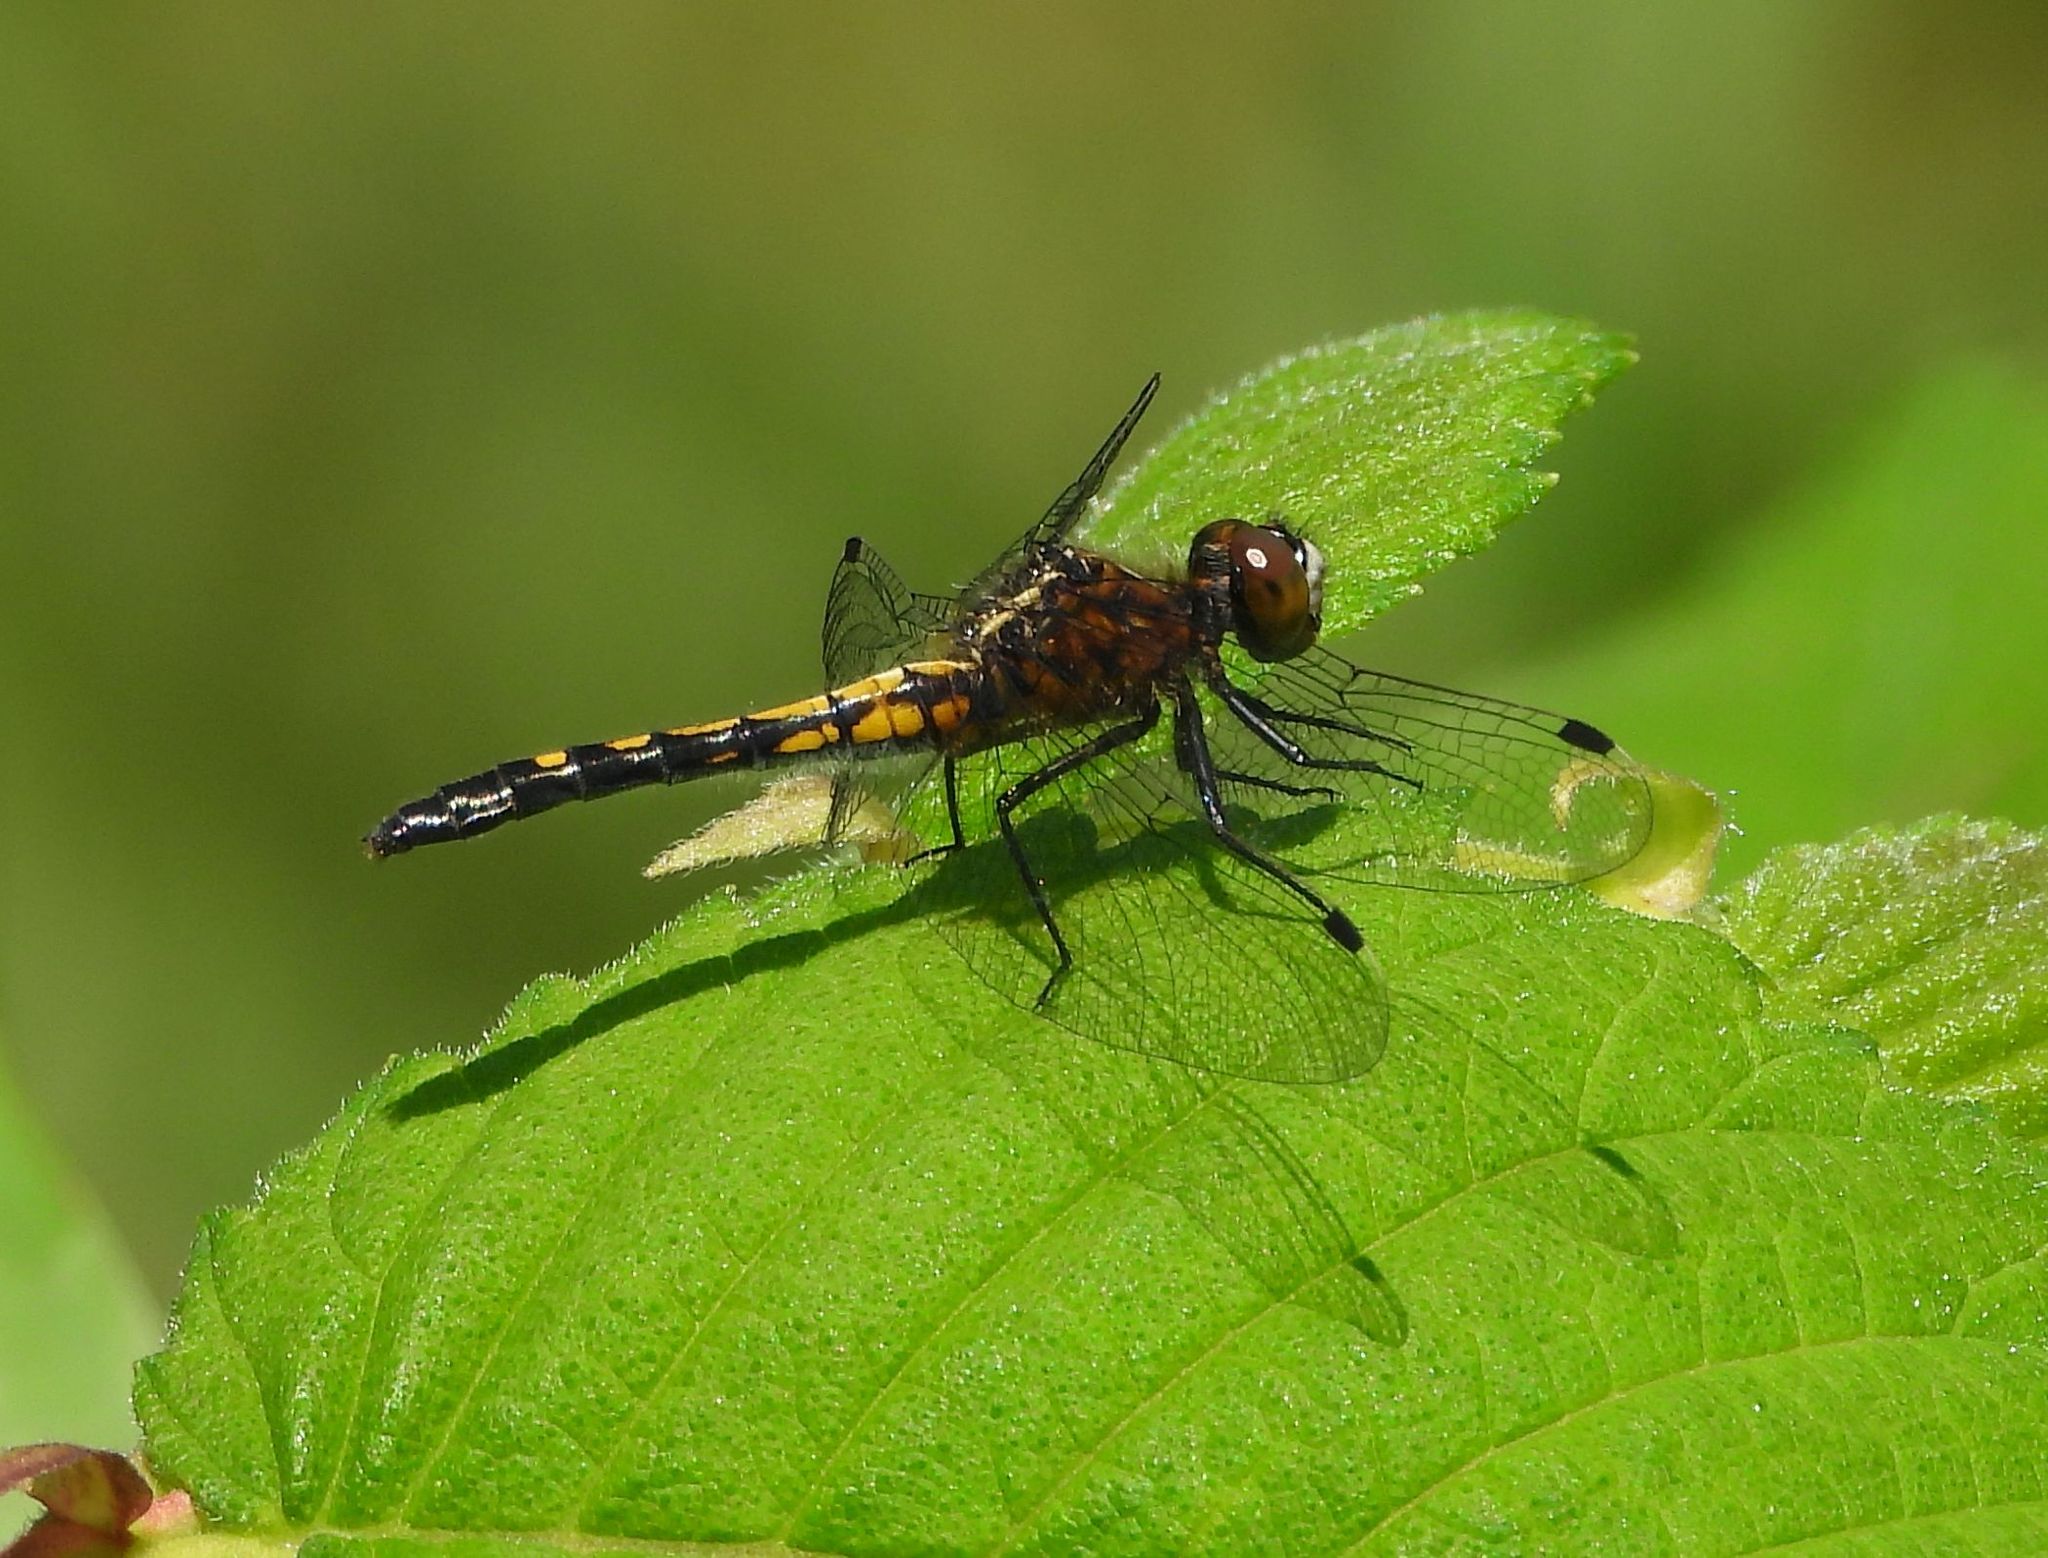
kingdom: Animalia
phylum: Arthropoda
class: Insecta
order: Odonata
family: Libellulidae
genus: Leucorrhinia
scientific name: Leucorrhinia intacta
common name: Dot-tailed whiteface
